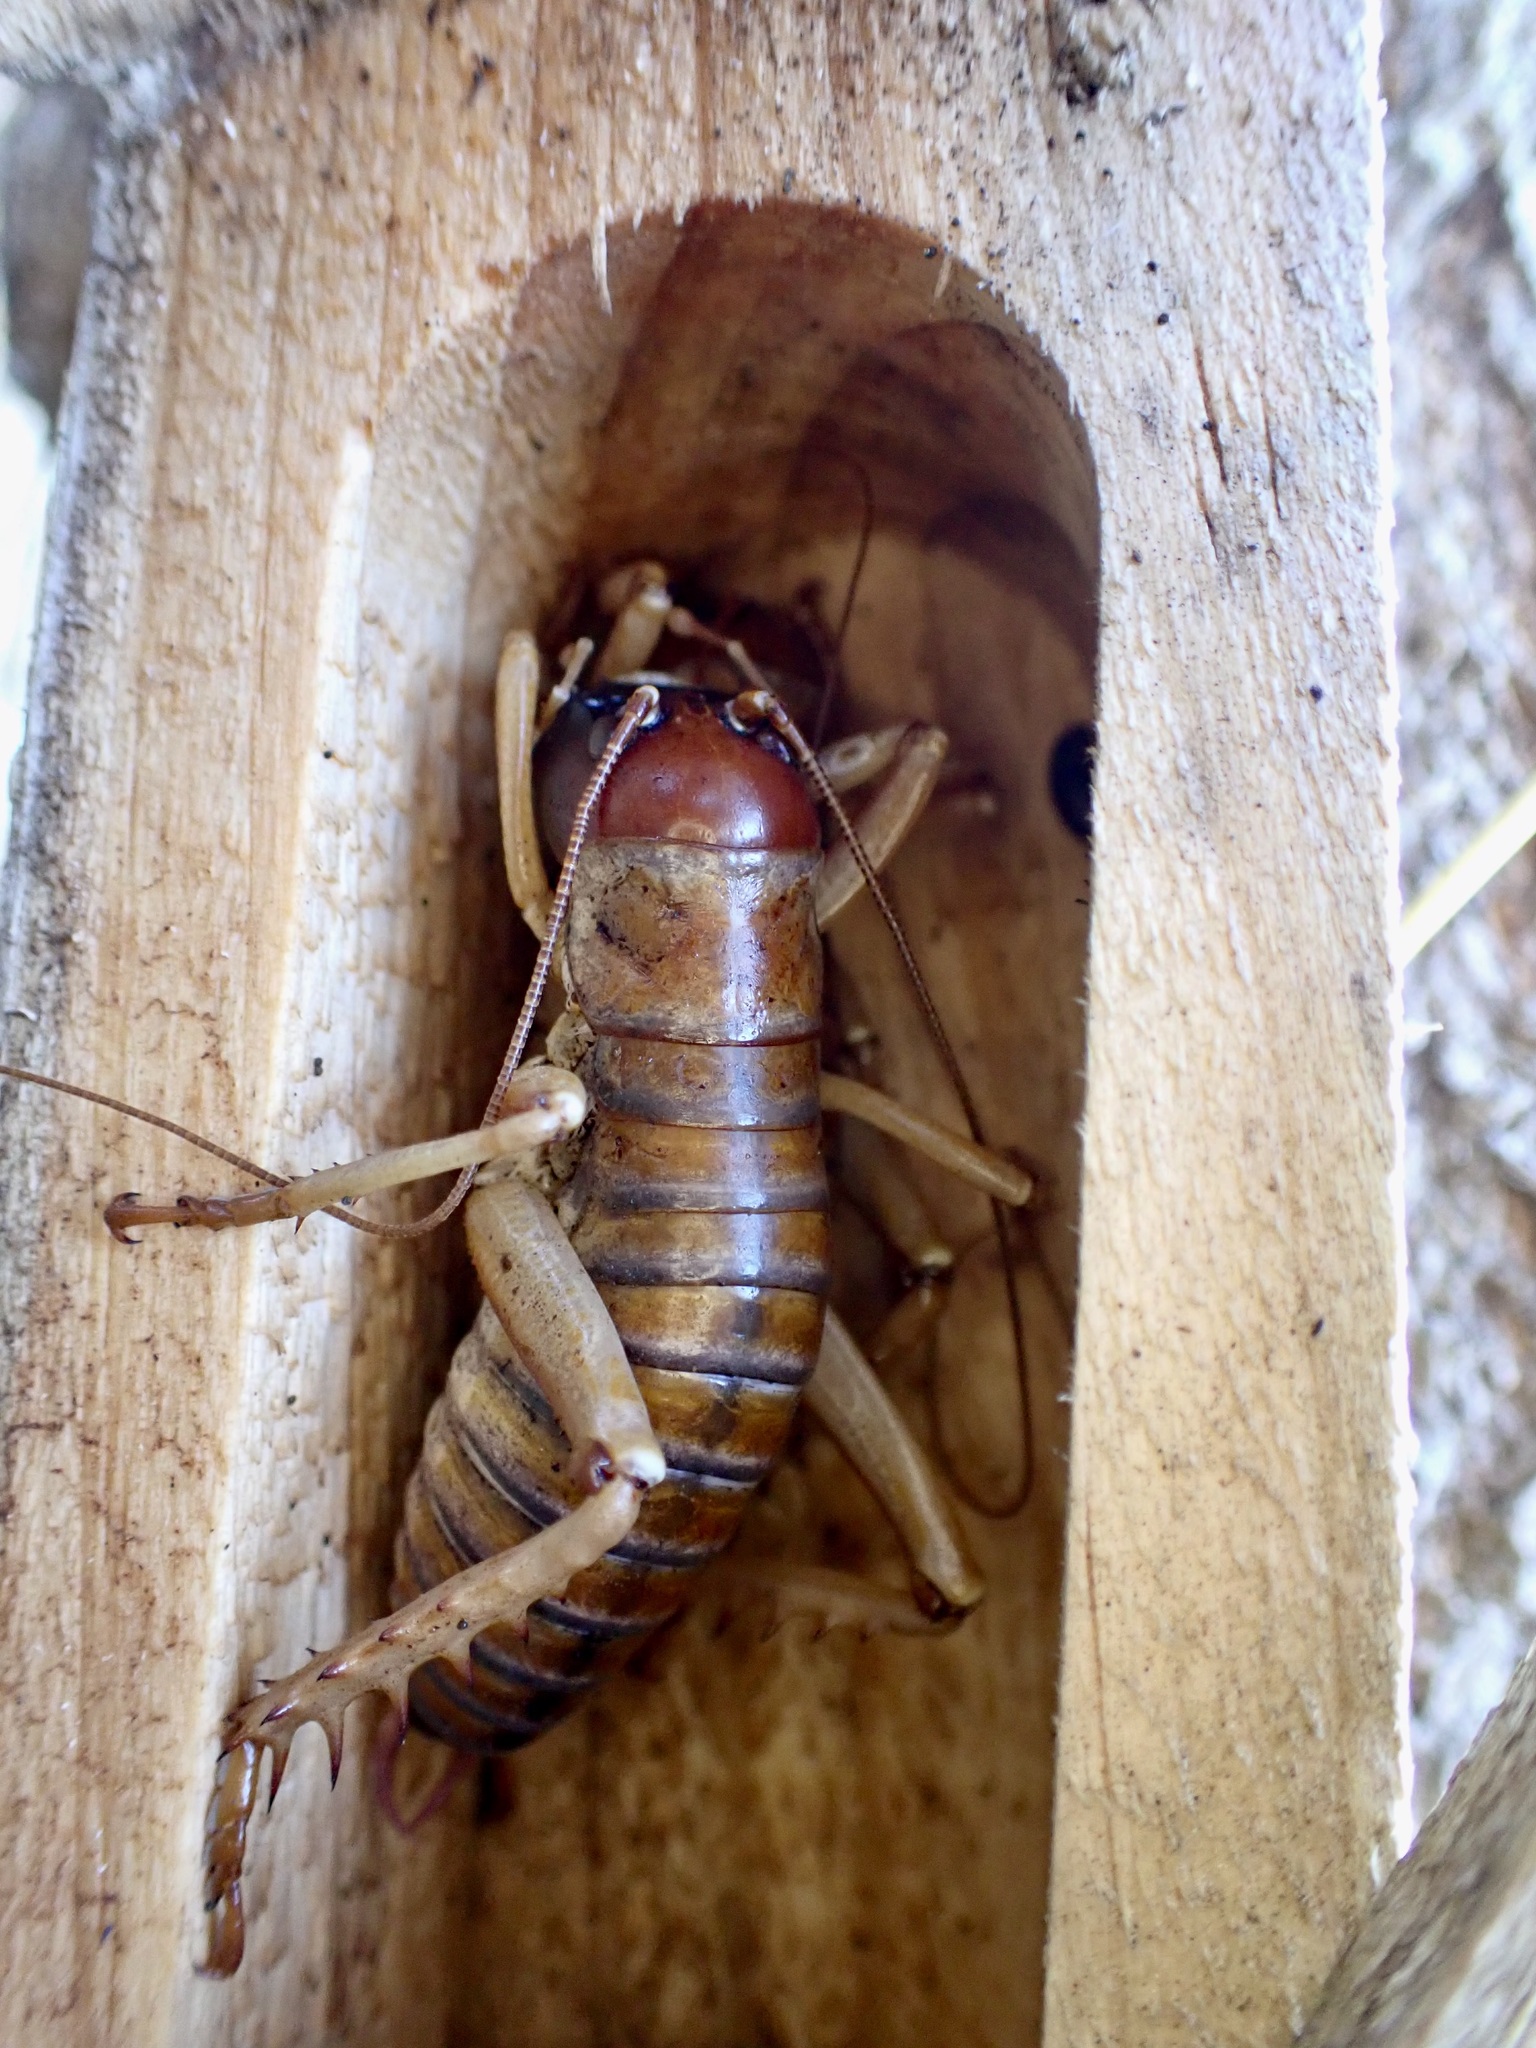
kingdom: Animalia
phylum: Arthropoda
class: Insecta
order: Orthoptera
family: Anostostomatidae
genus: Hemideina
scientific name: Hemideina ricta
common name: Banks peninsula tree weta
